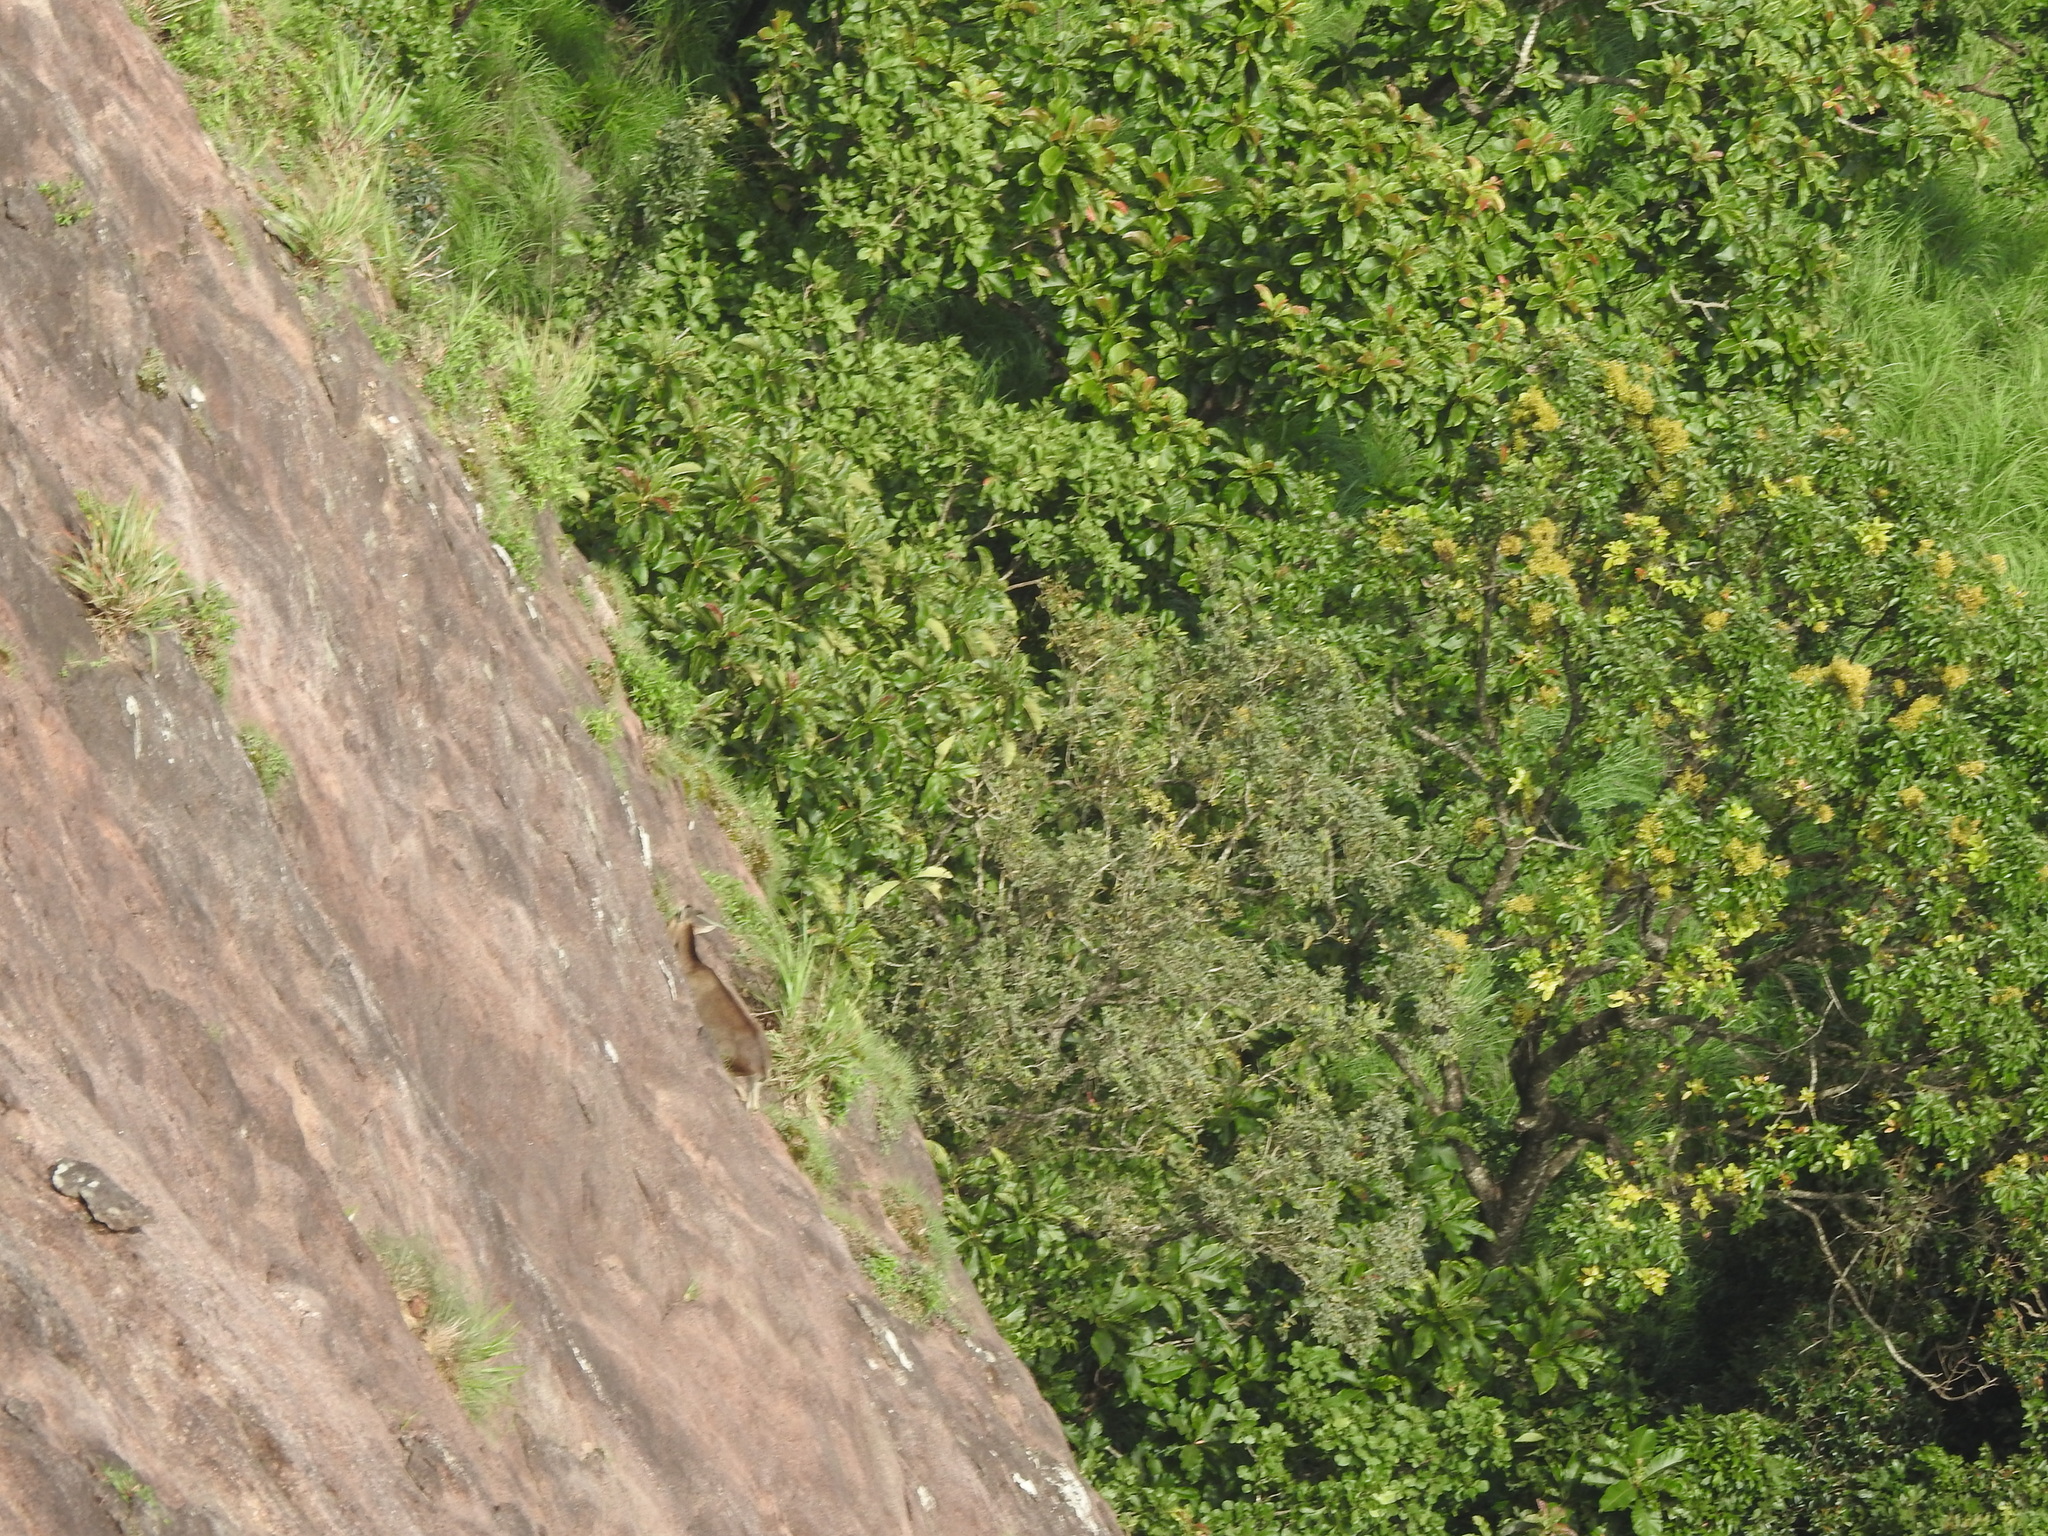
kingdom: Animalia
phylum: Chordata
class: Mammalia
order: Artiodactyla
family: Bovidae
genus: Hemitragus
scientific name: Hemitragus hylocrius
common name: Nilgiri tahr
